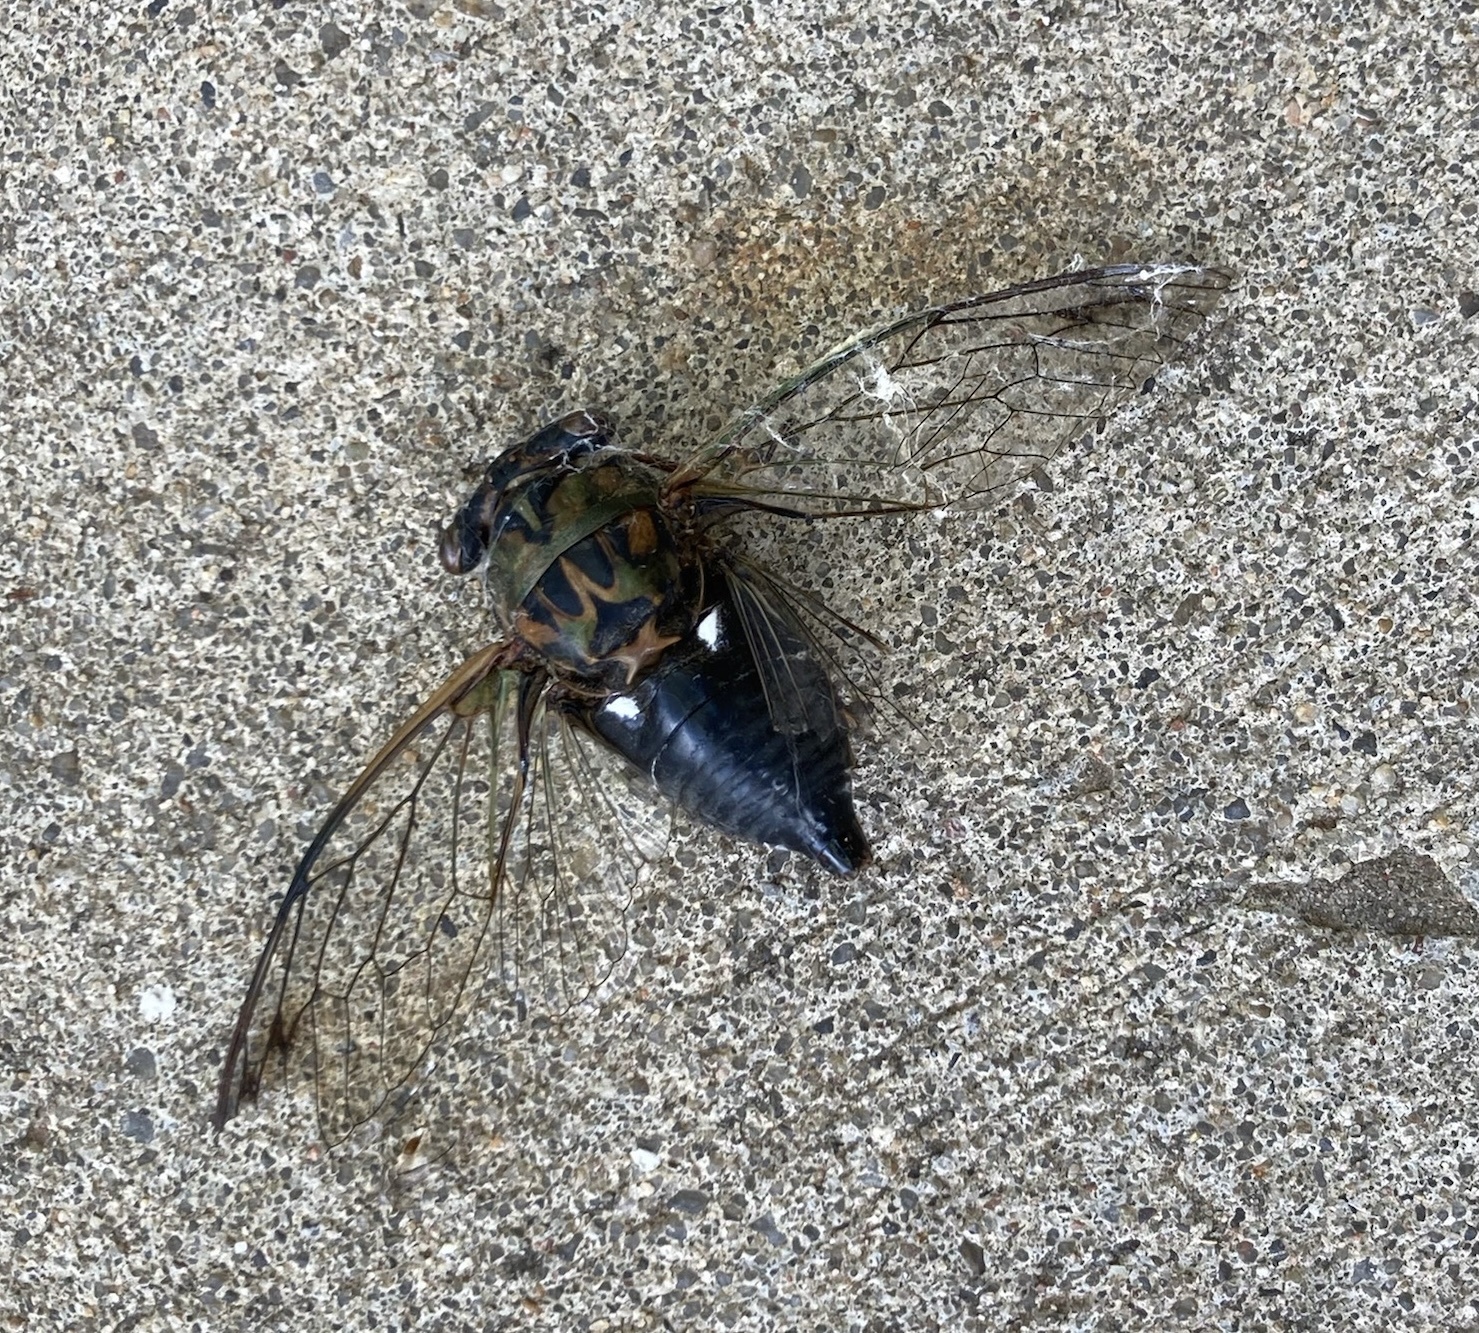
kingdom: Animalia
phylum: Arthropoda
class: Insecta
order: Hemiptera
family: Cicadidae
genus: Neotibicen
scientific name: Neotibicen pruinosus
